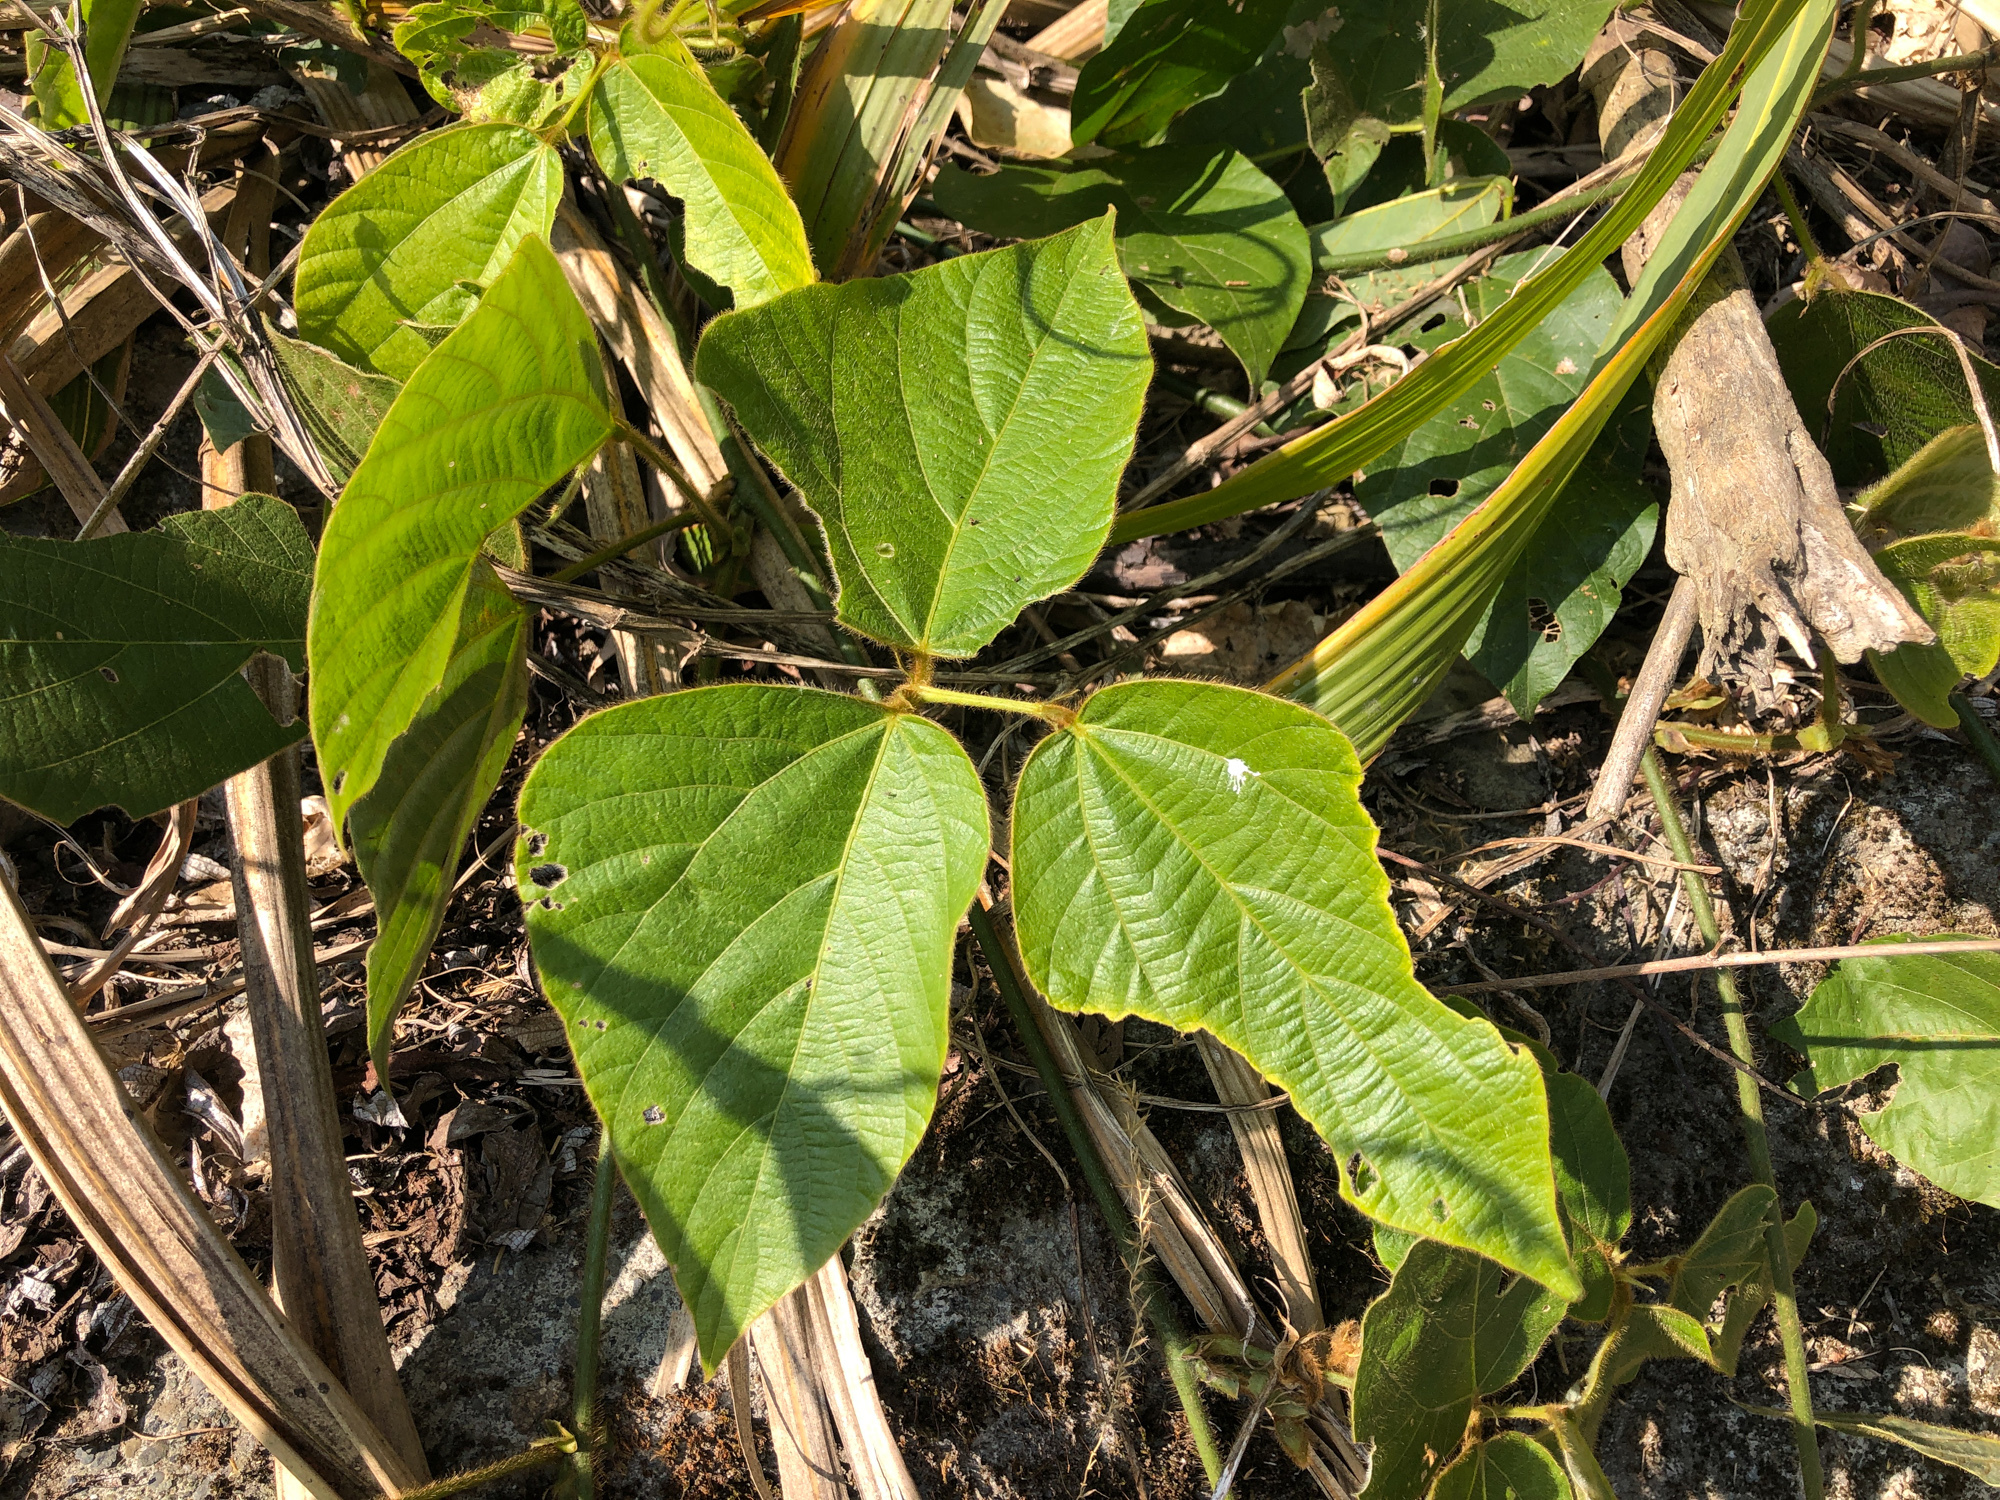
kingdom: Plantae
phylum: Tracheophyta
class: Magnoliopsida
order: Fabales
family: Fabaceae
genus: Pueraria
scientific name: Pueraria montana
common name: Kudzu
